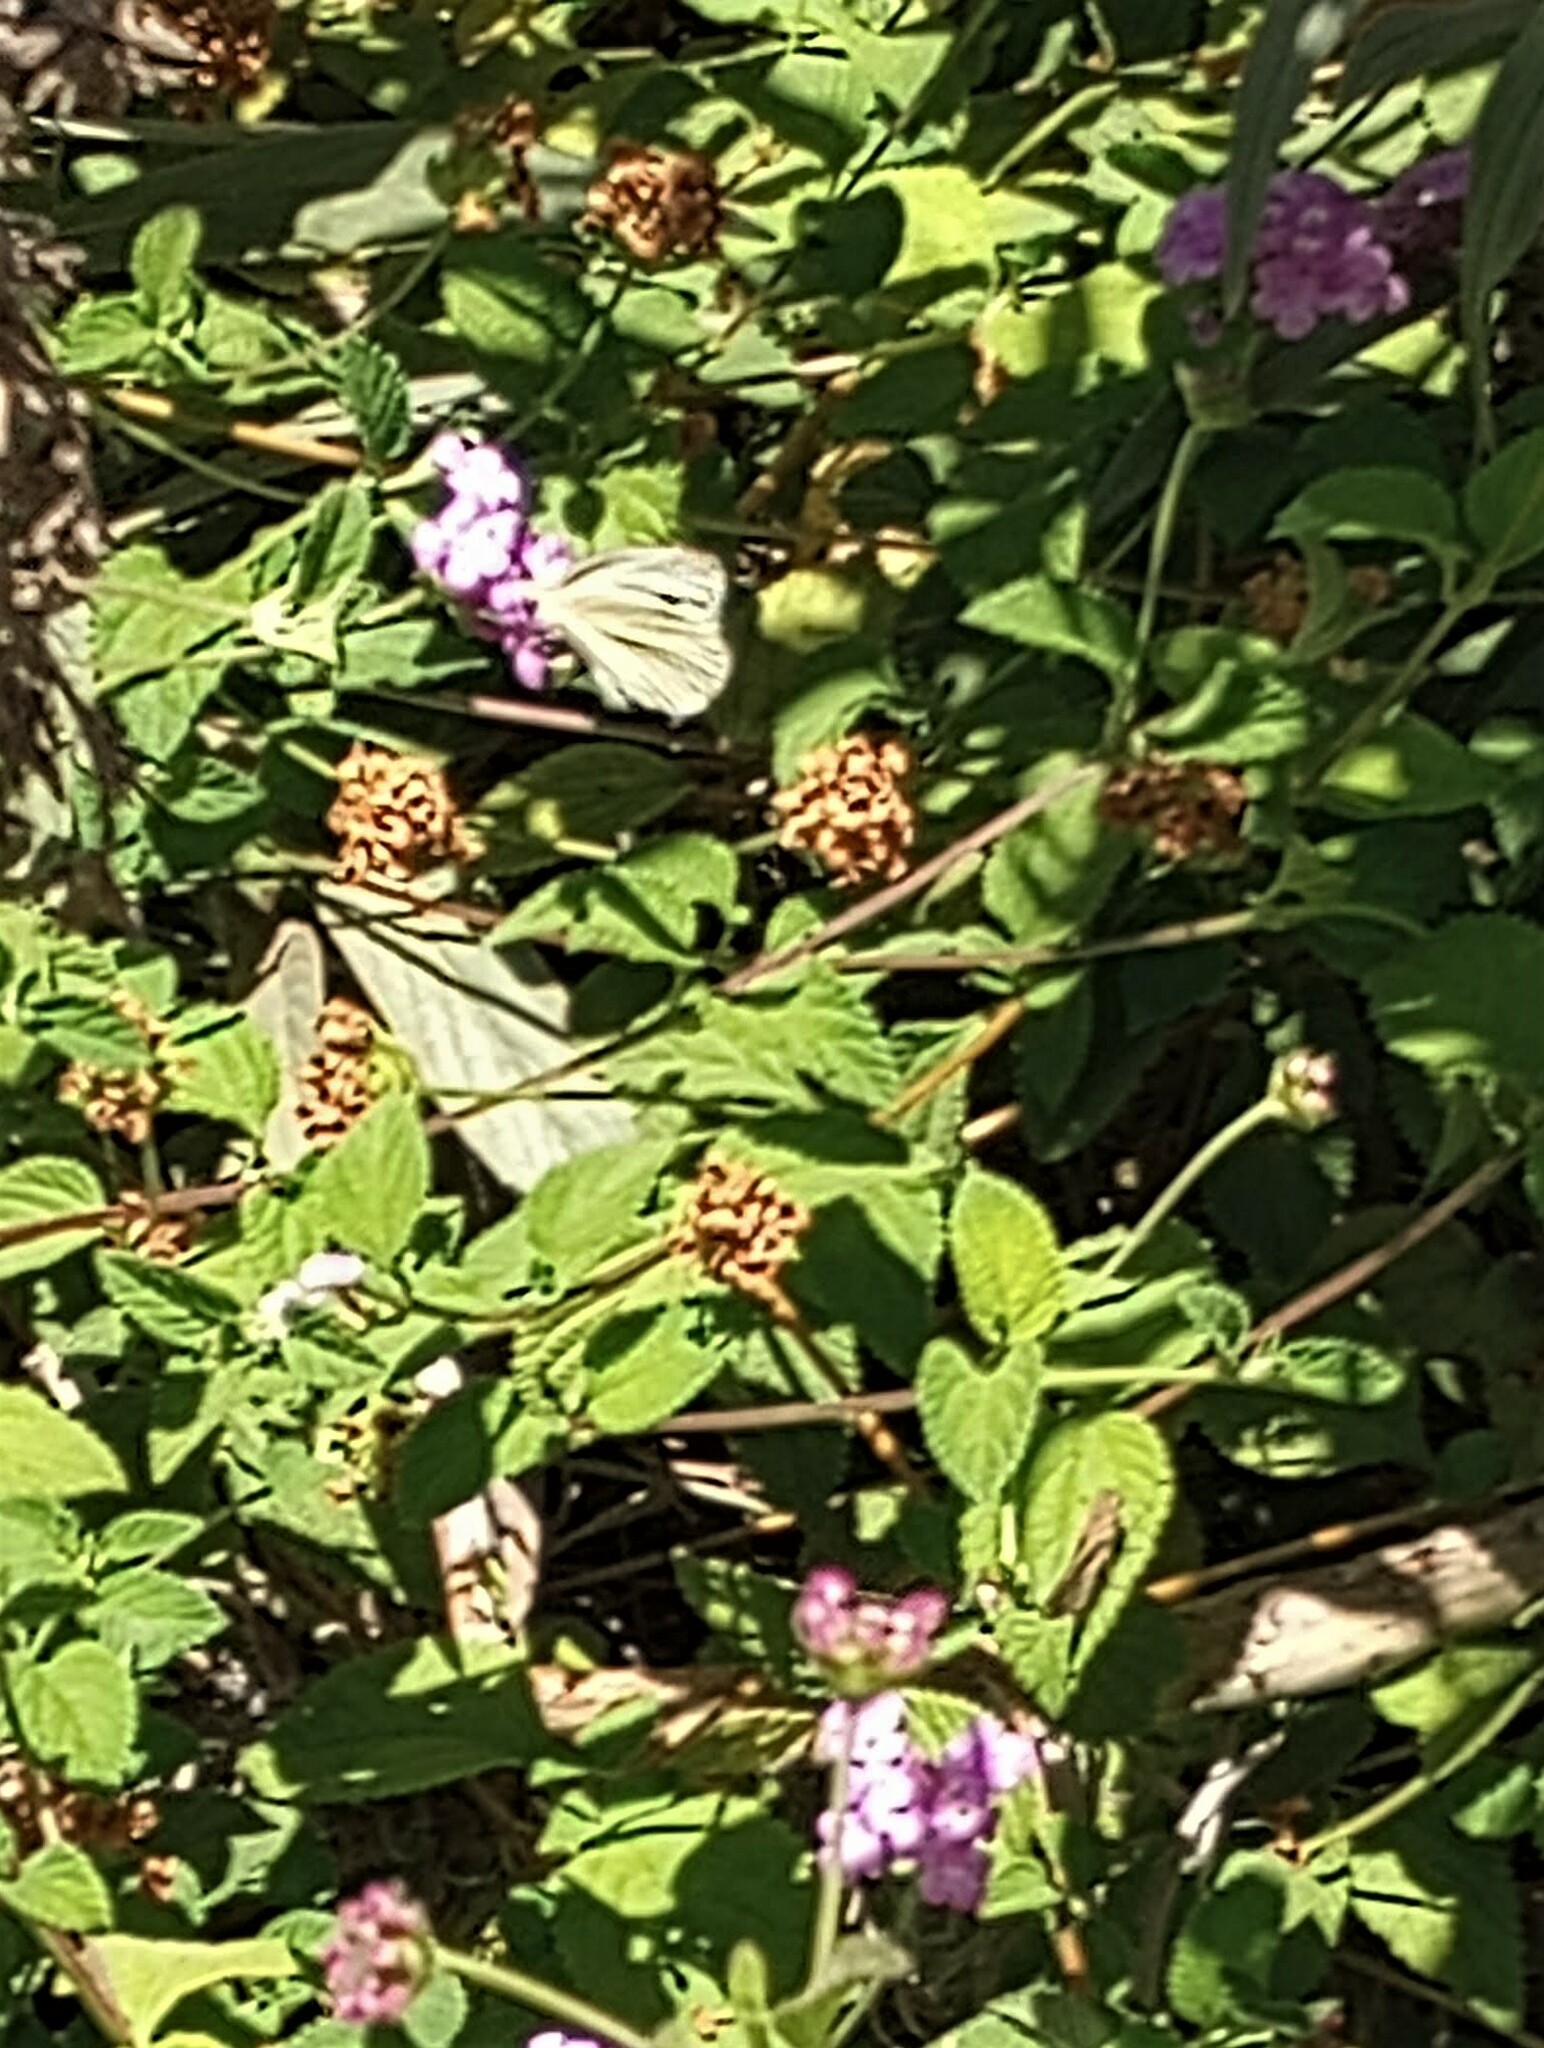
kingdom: Animalia
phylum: Arthropoda
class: Insecta
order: Lepidoptera
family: Pieridae
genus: Pieris
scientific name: Pieris rapae
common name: Small white
